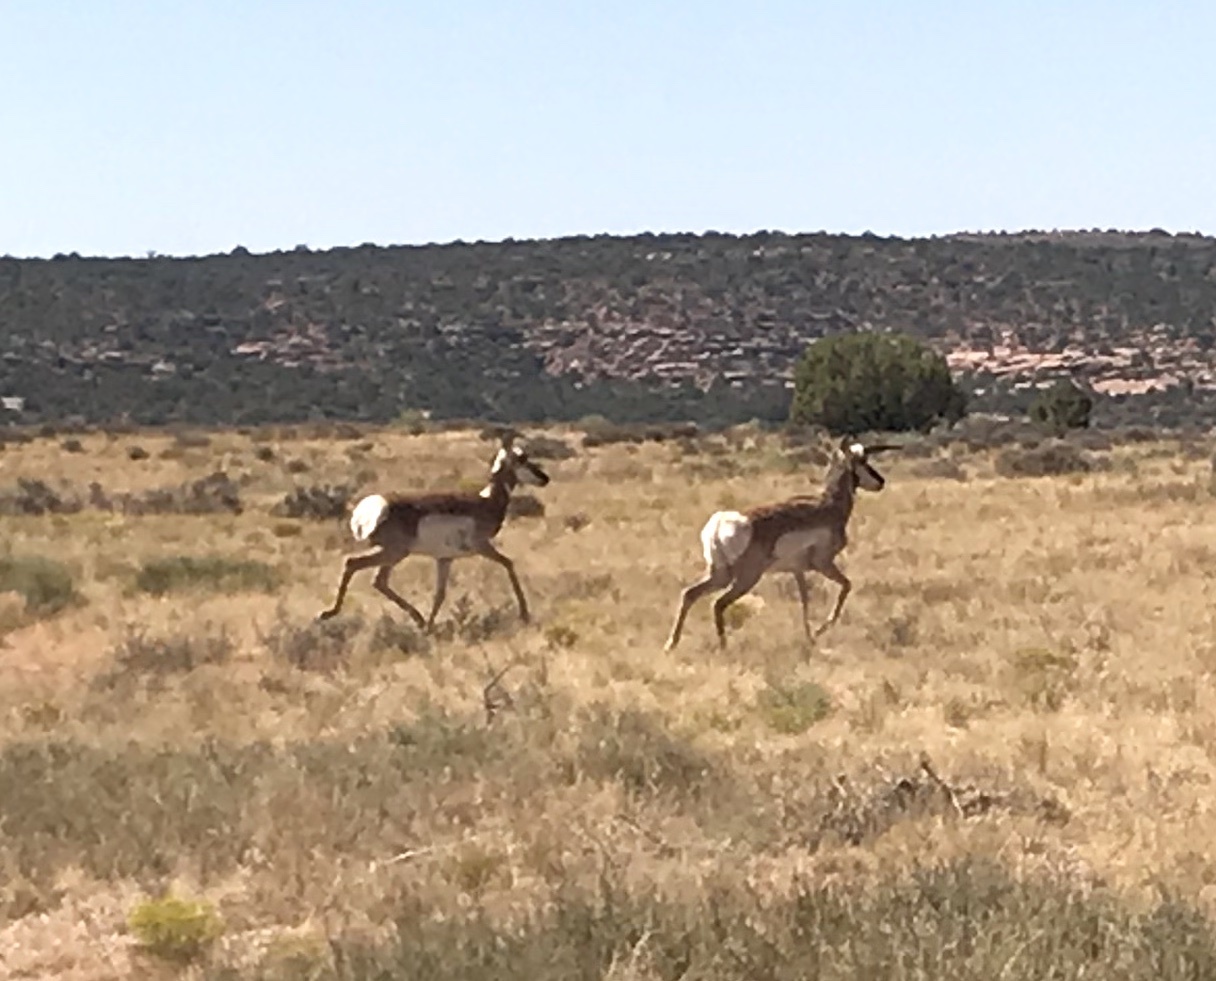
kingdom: Animalia
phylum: Chordata
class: Mammalia
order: Artiodactyla
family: Antilocapridae
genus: Antilocapra
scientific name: Antilocapra americana
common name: Pronghorn
